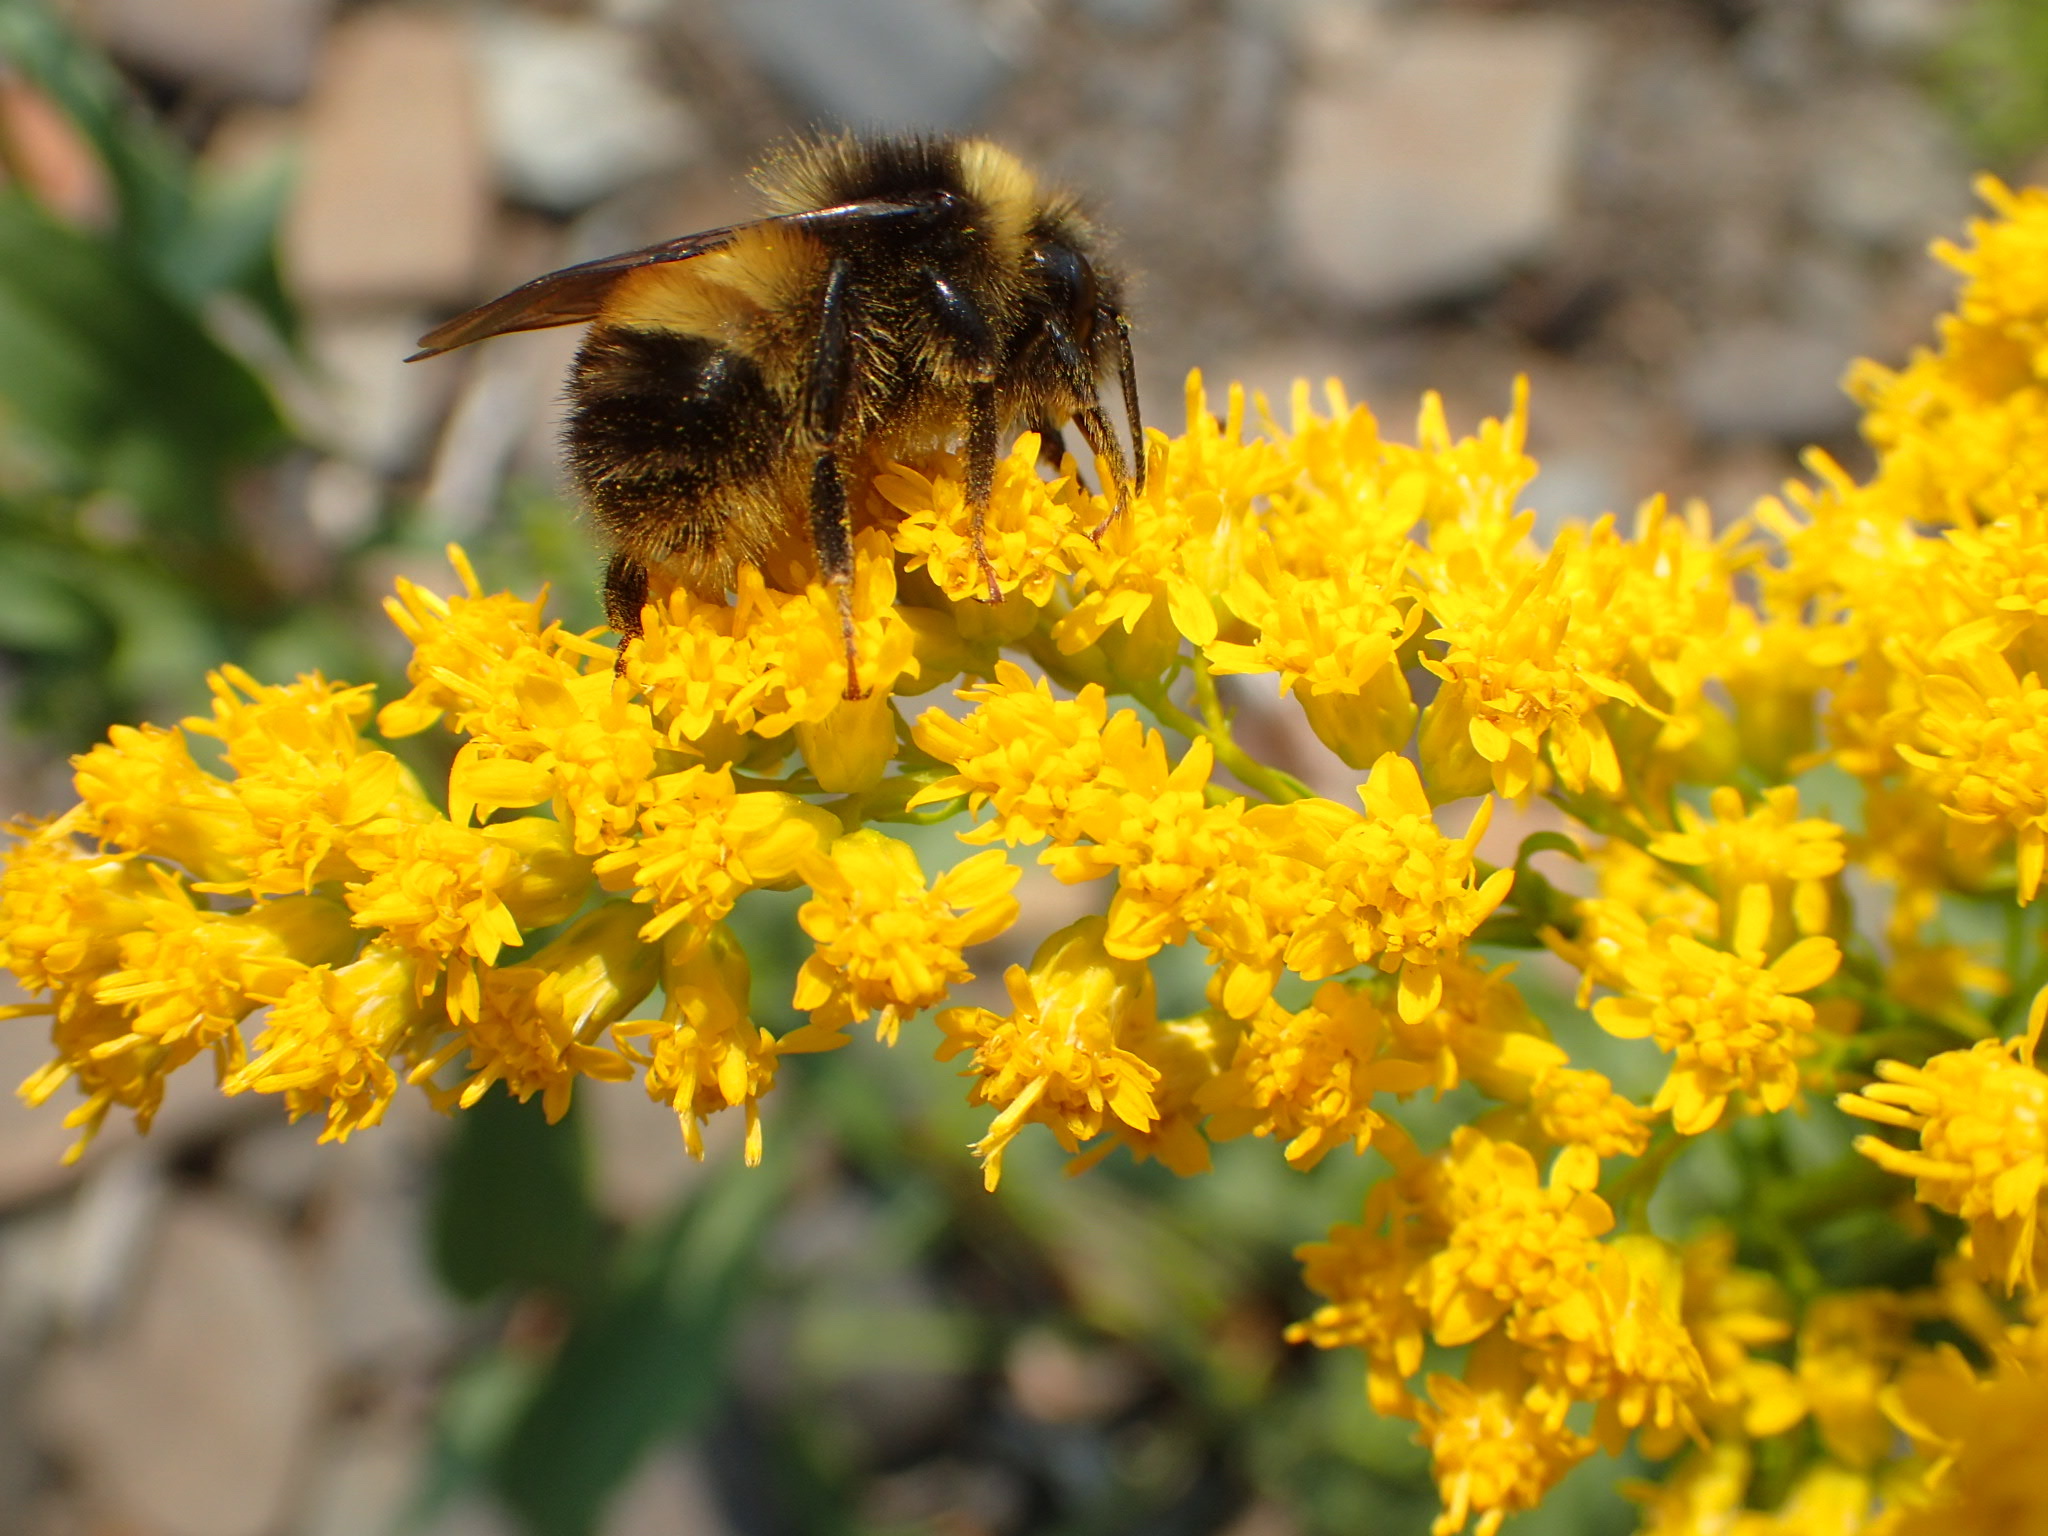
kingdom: Animalia
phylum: Arthropoda
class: Insecta
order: Hymenoptera
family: Apidae
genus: Bombus
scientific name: Bombus terricola
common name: Yellow-banded bumble bee
